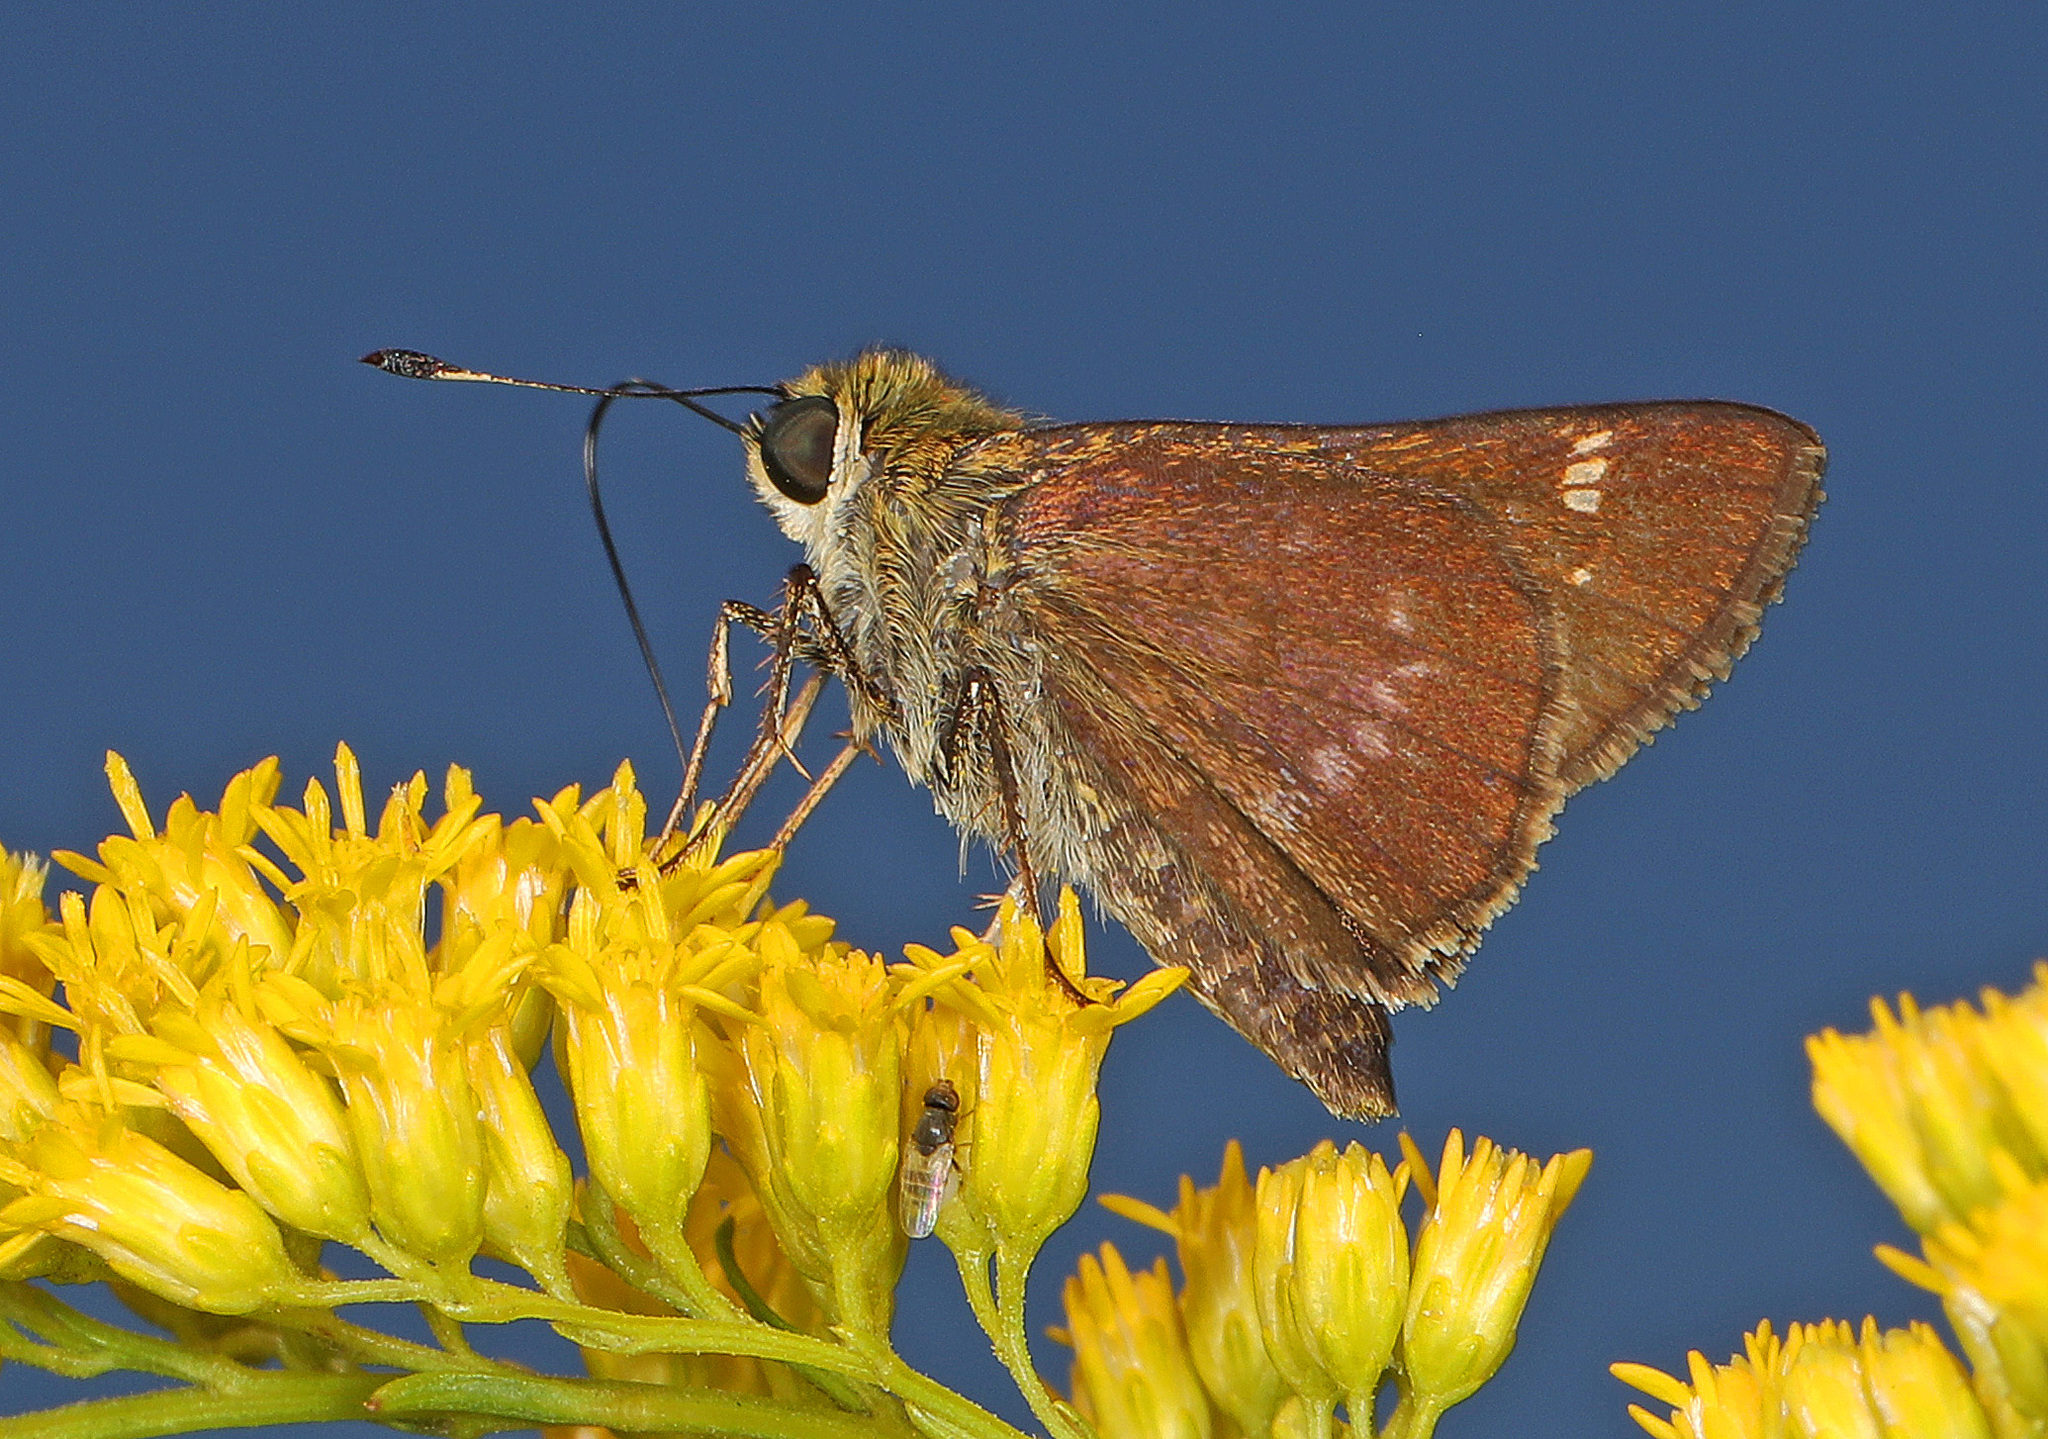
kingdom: Animalia
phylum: Arthropoda
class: Insecta
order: Lepidoptera
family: Hesperiidae
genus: Vernia
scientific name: Vernia verna
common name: Little glassywing
